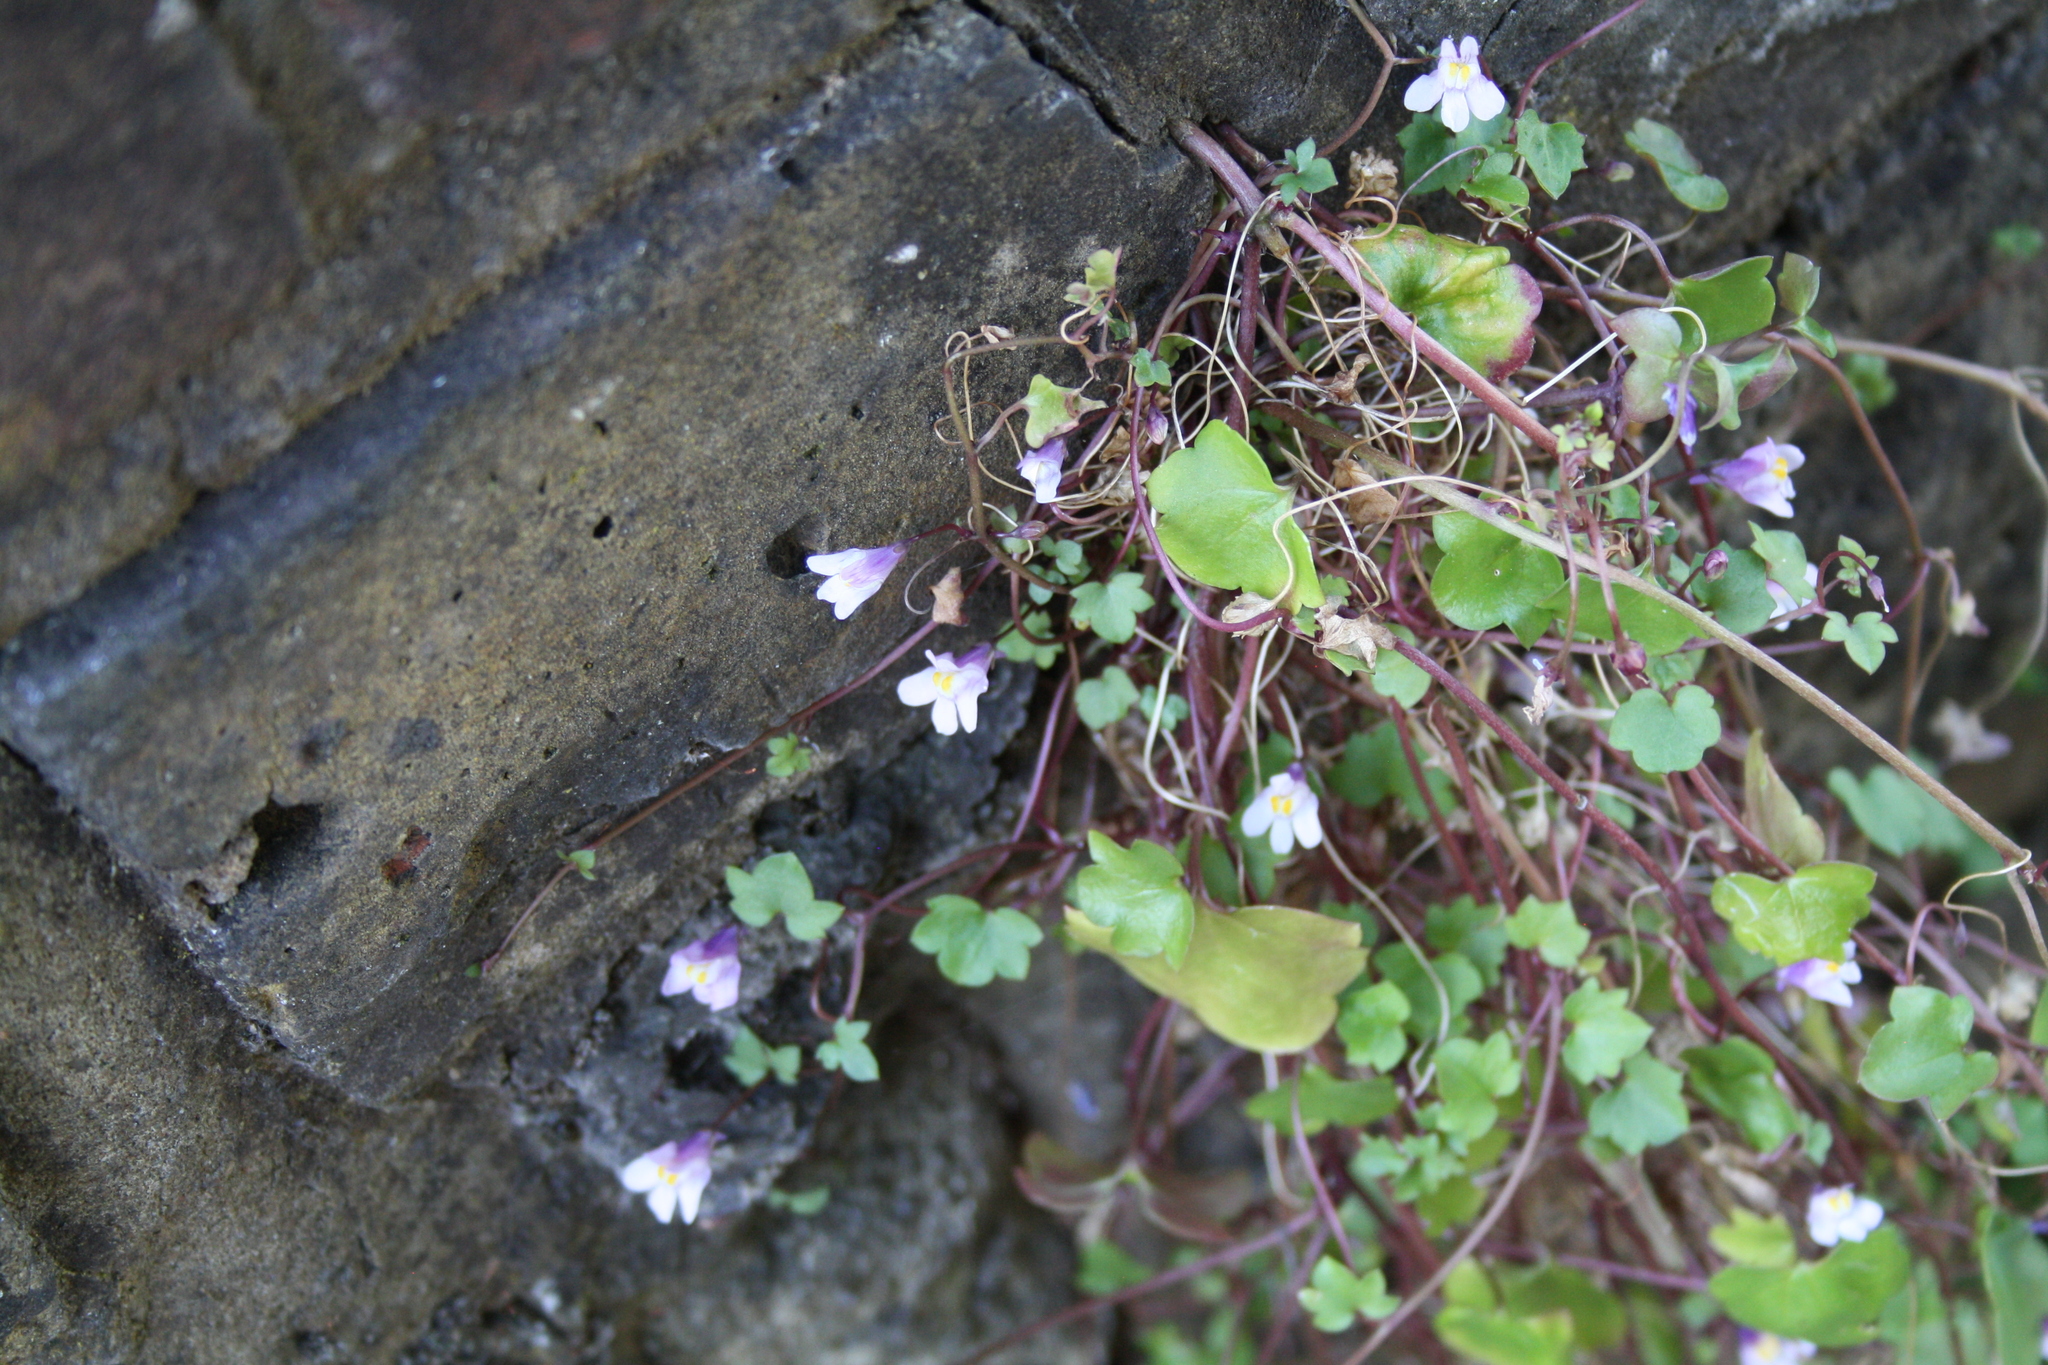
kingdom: Plantae
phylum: Tracheophyta
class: Magnoliopsida
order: Lamiales
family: Plantaginaceae
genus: Cymbalaria
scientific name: Cymbalaria muralis
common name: Ivy-leaved toadflax
